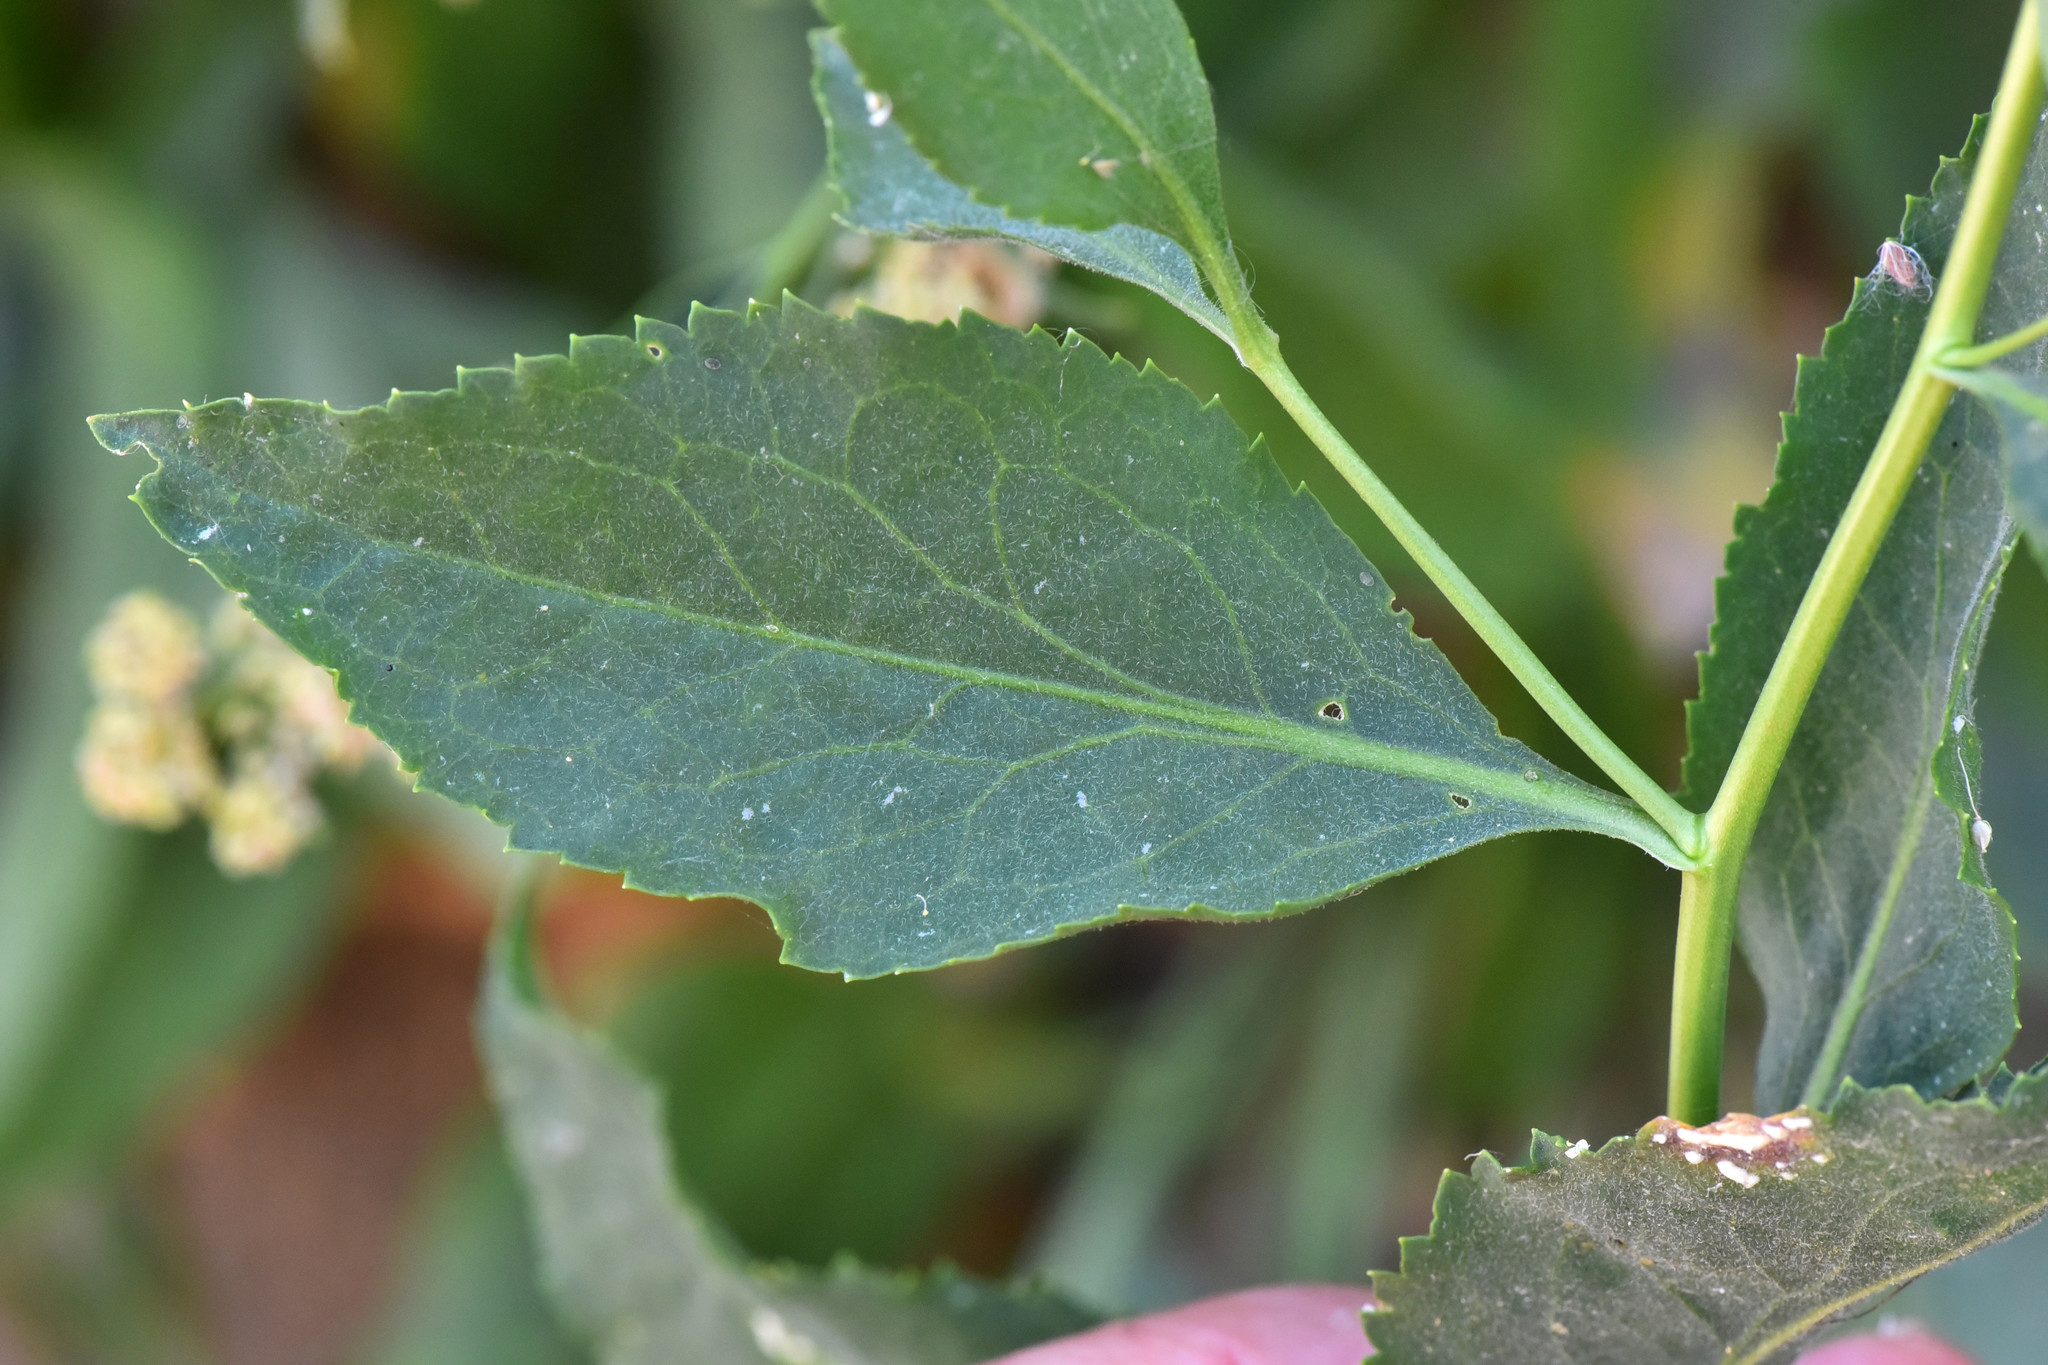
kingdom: Plantae
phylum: Tracheophyta
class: Magnoliopsida
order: Brassicales
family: Brassicaceae
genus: Lepidium
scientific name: Lepidium latifolium
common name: Dittander
